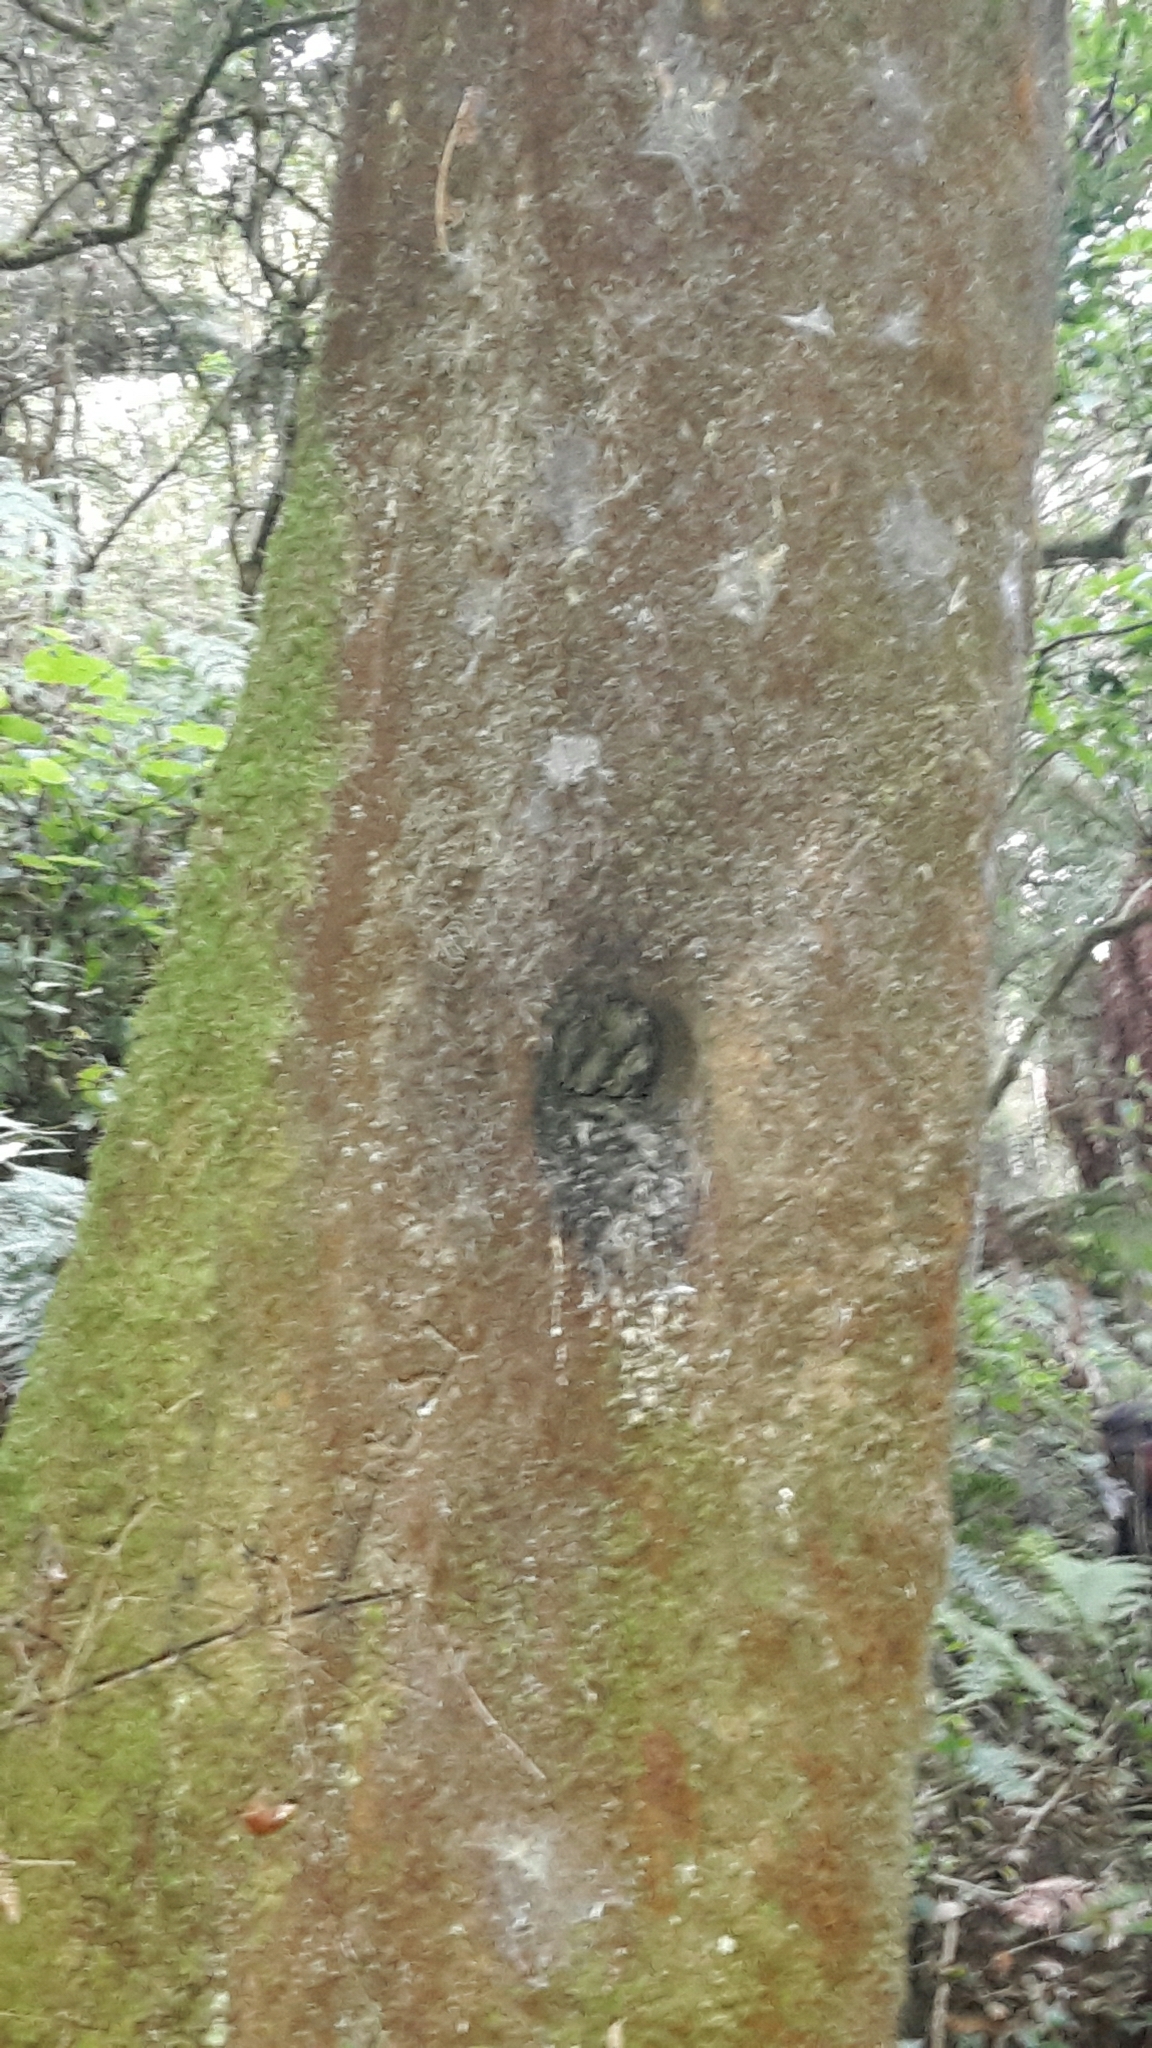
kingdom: Animalia
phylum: Chordata
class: Aves
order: Coraciiformes
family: Alcedinidae
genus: Todiramphus
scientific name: Todiramphus sanctus
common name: Sacred kingfisher
